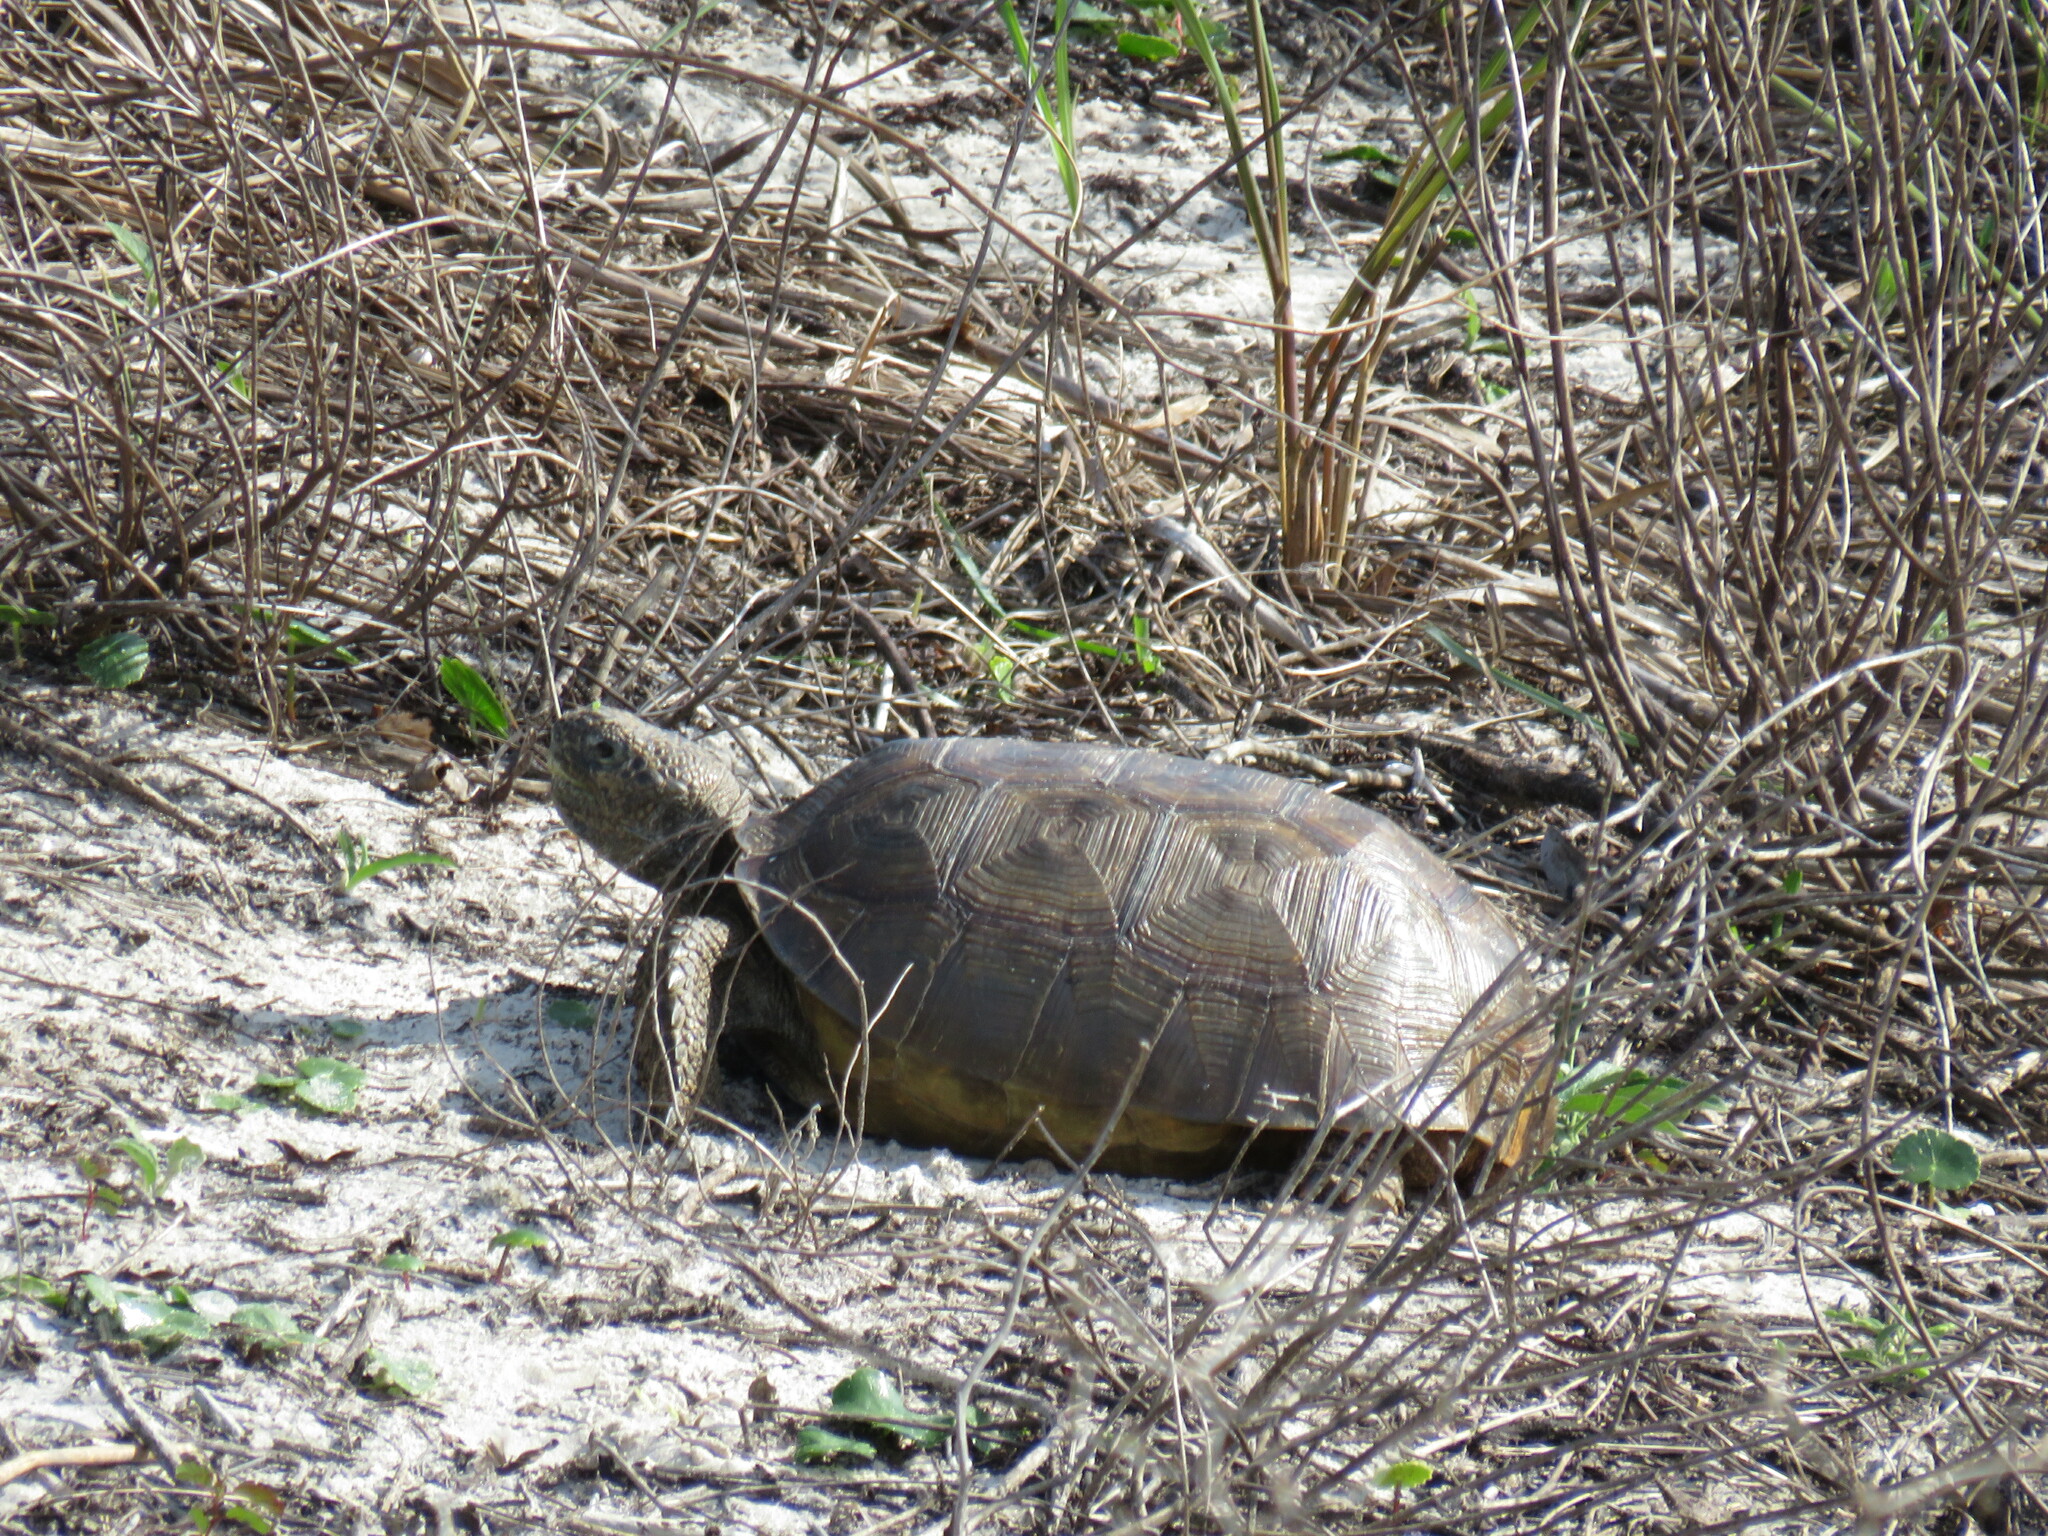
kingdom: Animalia
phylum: Chordata
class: Testudines
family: Testudinidae
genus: Gopherus
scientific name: Gopherus polyphemus
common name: Florida gopher tortoise
